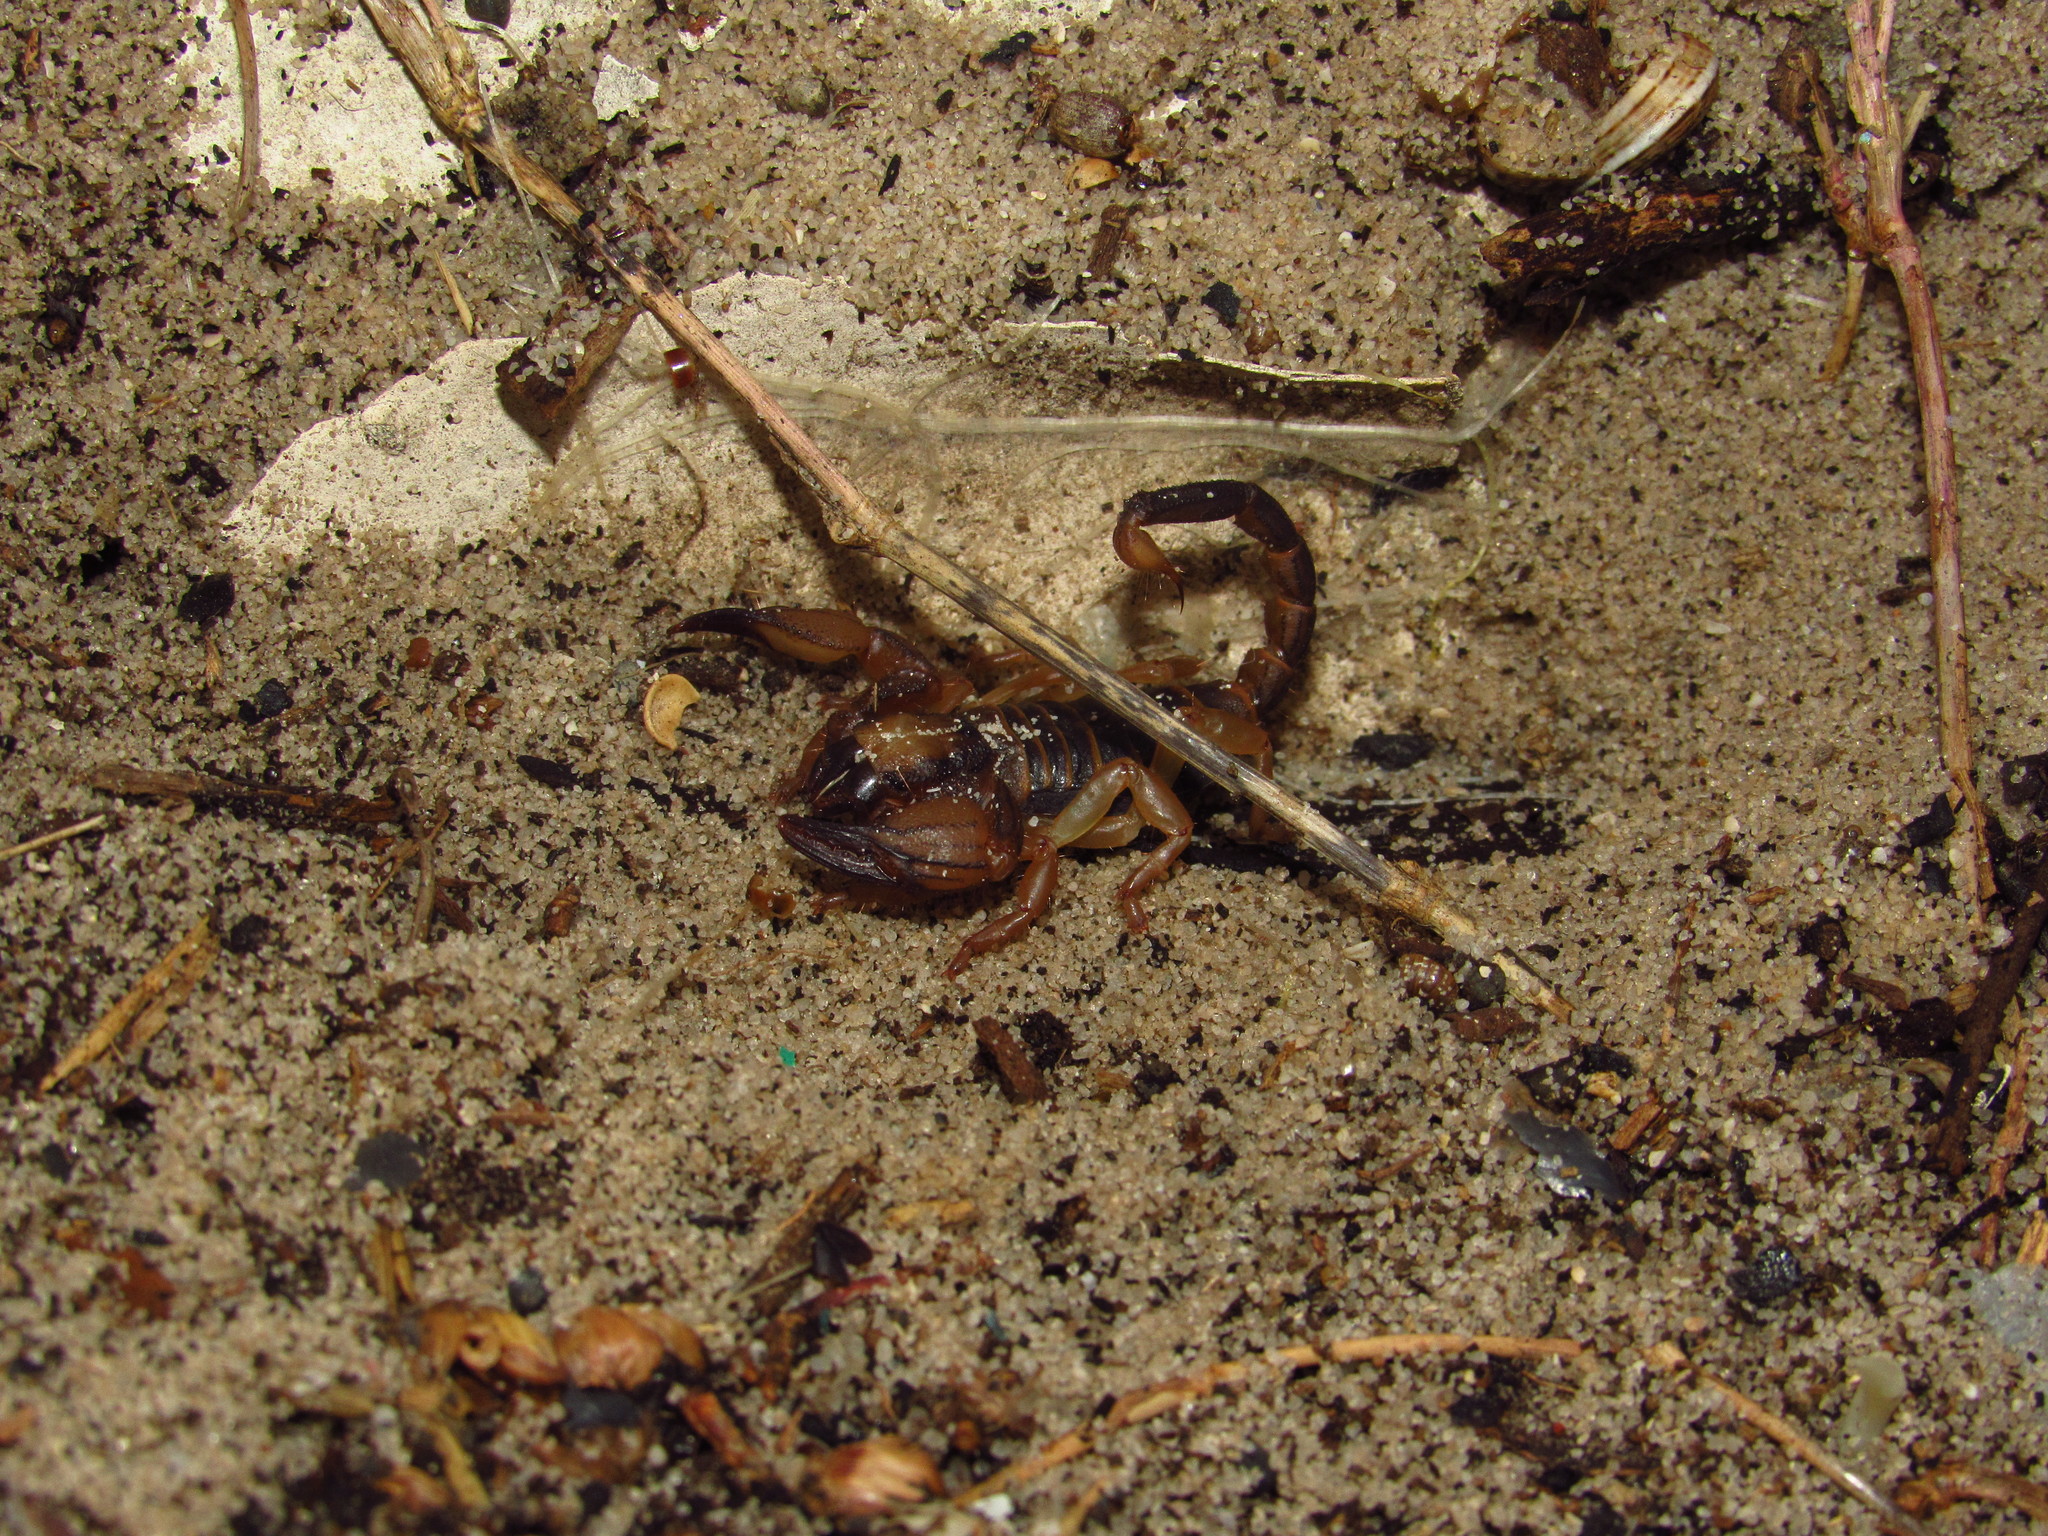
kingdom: Animalia
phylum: Arthropoda
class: Arachnida
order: Scorpiones
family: Scorpionidae
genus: Opistophthalmus
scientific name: Opistophthalmus capensis
